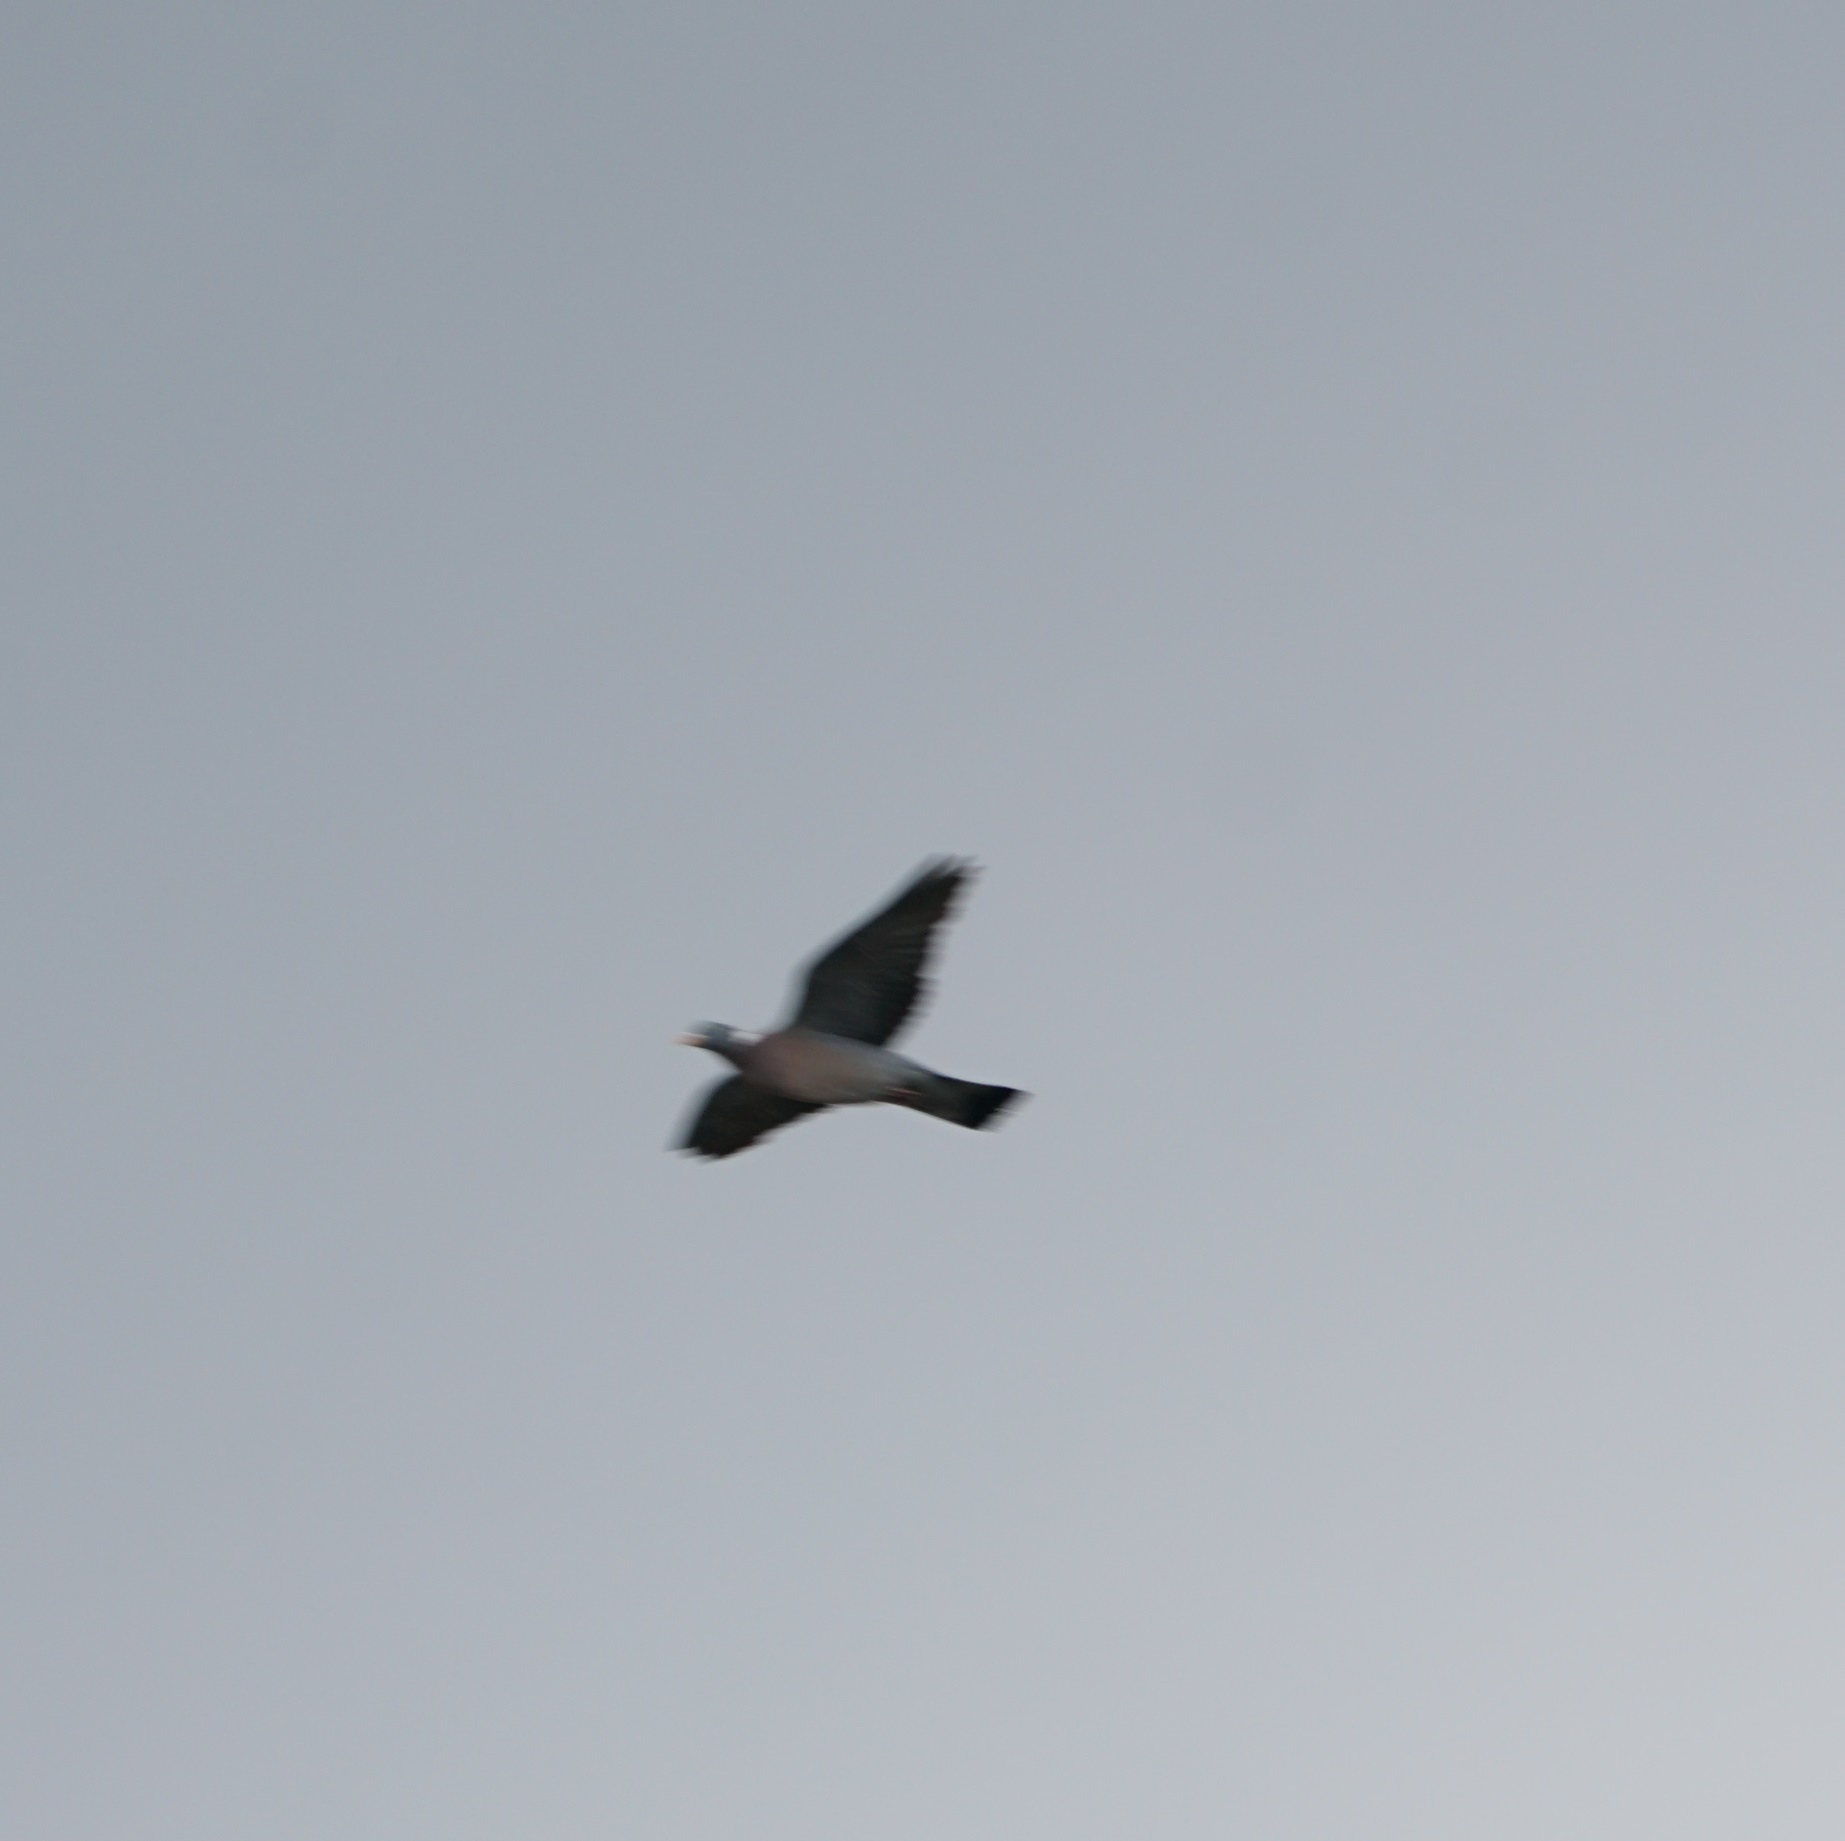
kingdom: Animalia
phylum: Chordata
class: Aves
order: Columbiformes
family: Columbidae
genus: Columba
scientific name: Columba palumbus
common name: Common wood pigeon
